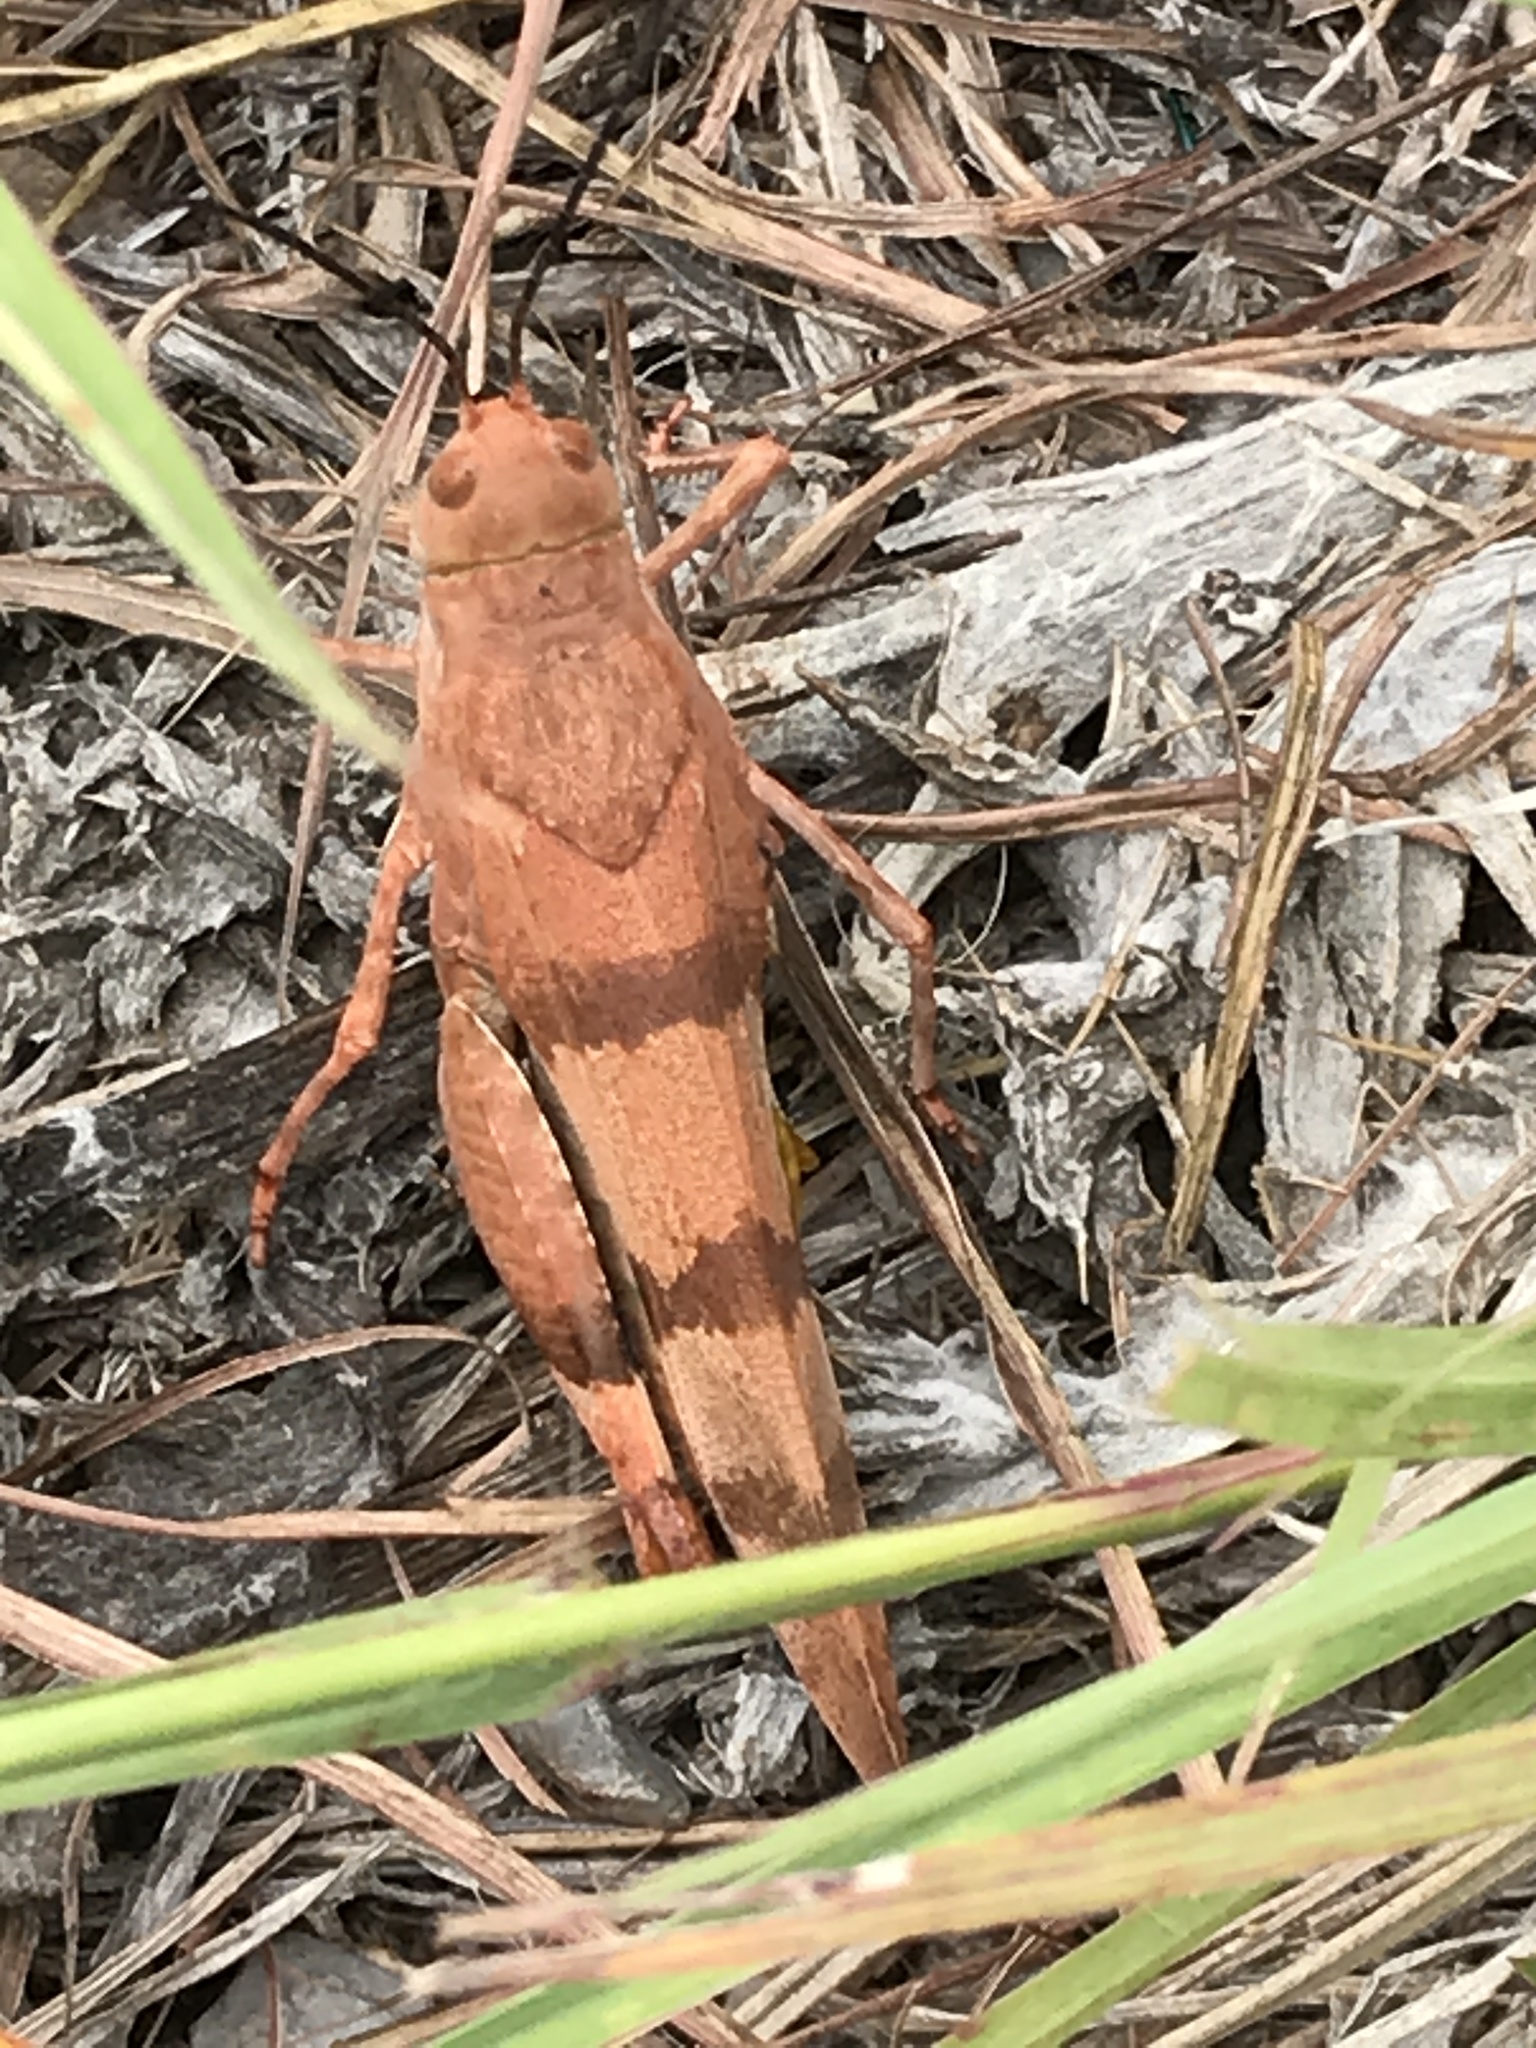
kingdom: Animalia
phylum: Arthropoda
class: Insecta
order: Orthoptera
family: Acrididae
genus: Hadrotettix
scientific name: Hadrotettix trifasciatus
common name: Threebanded grasshopper
